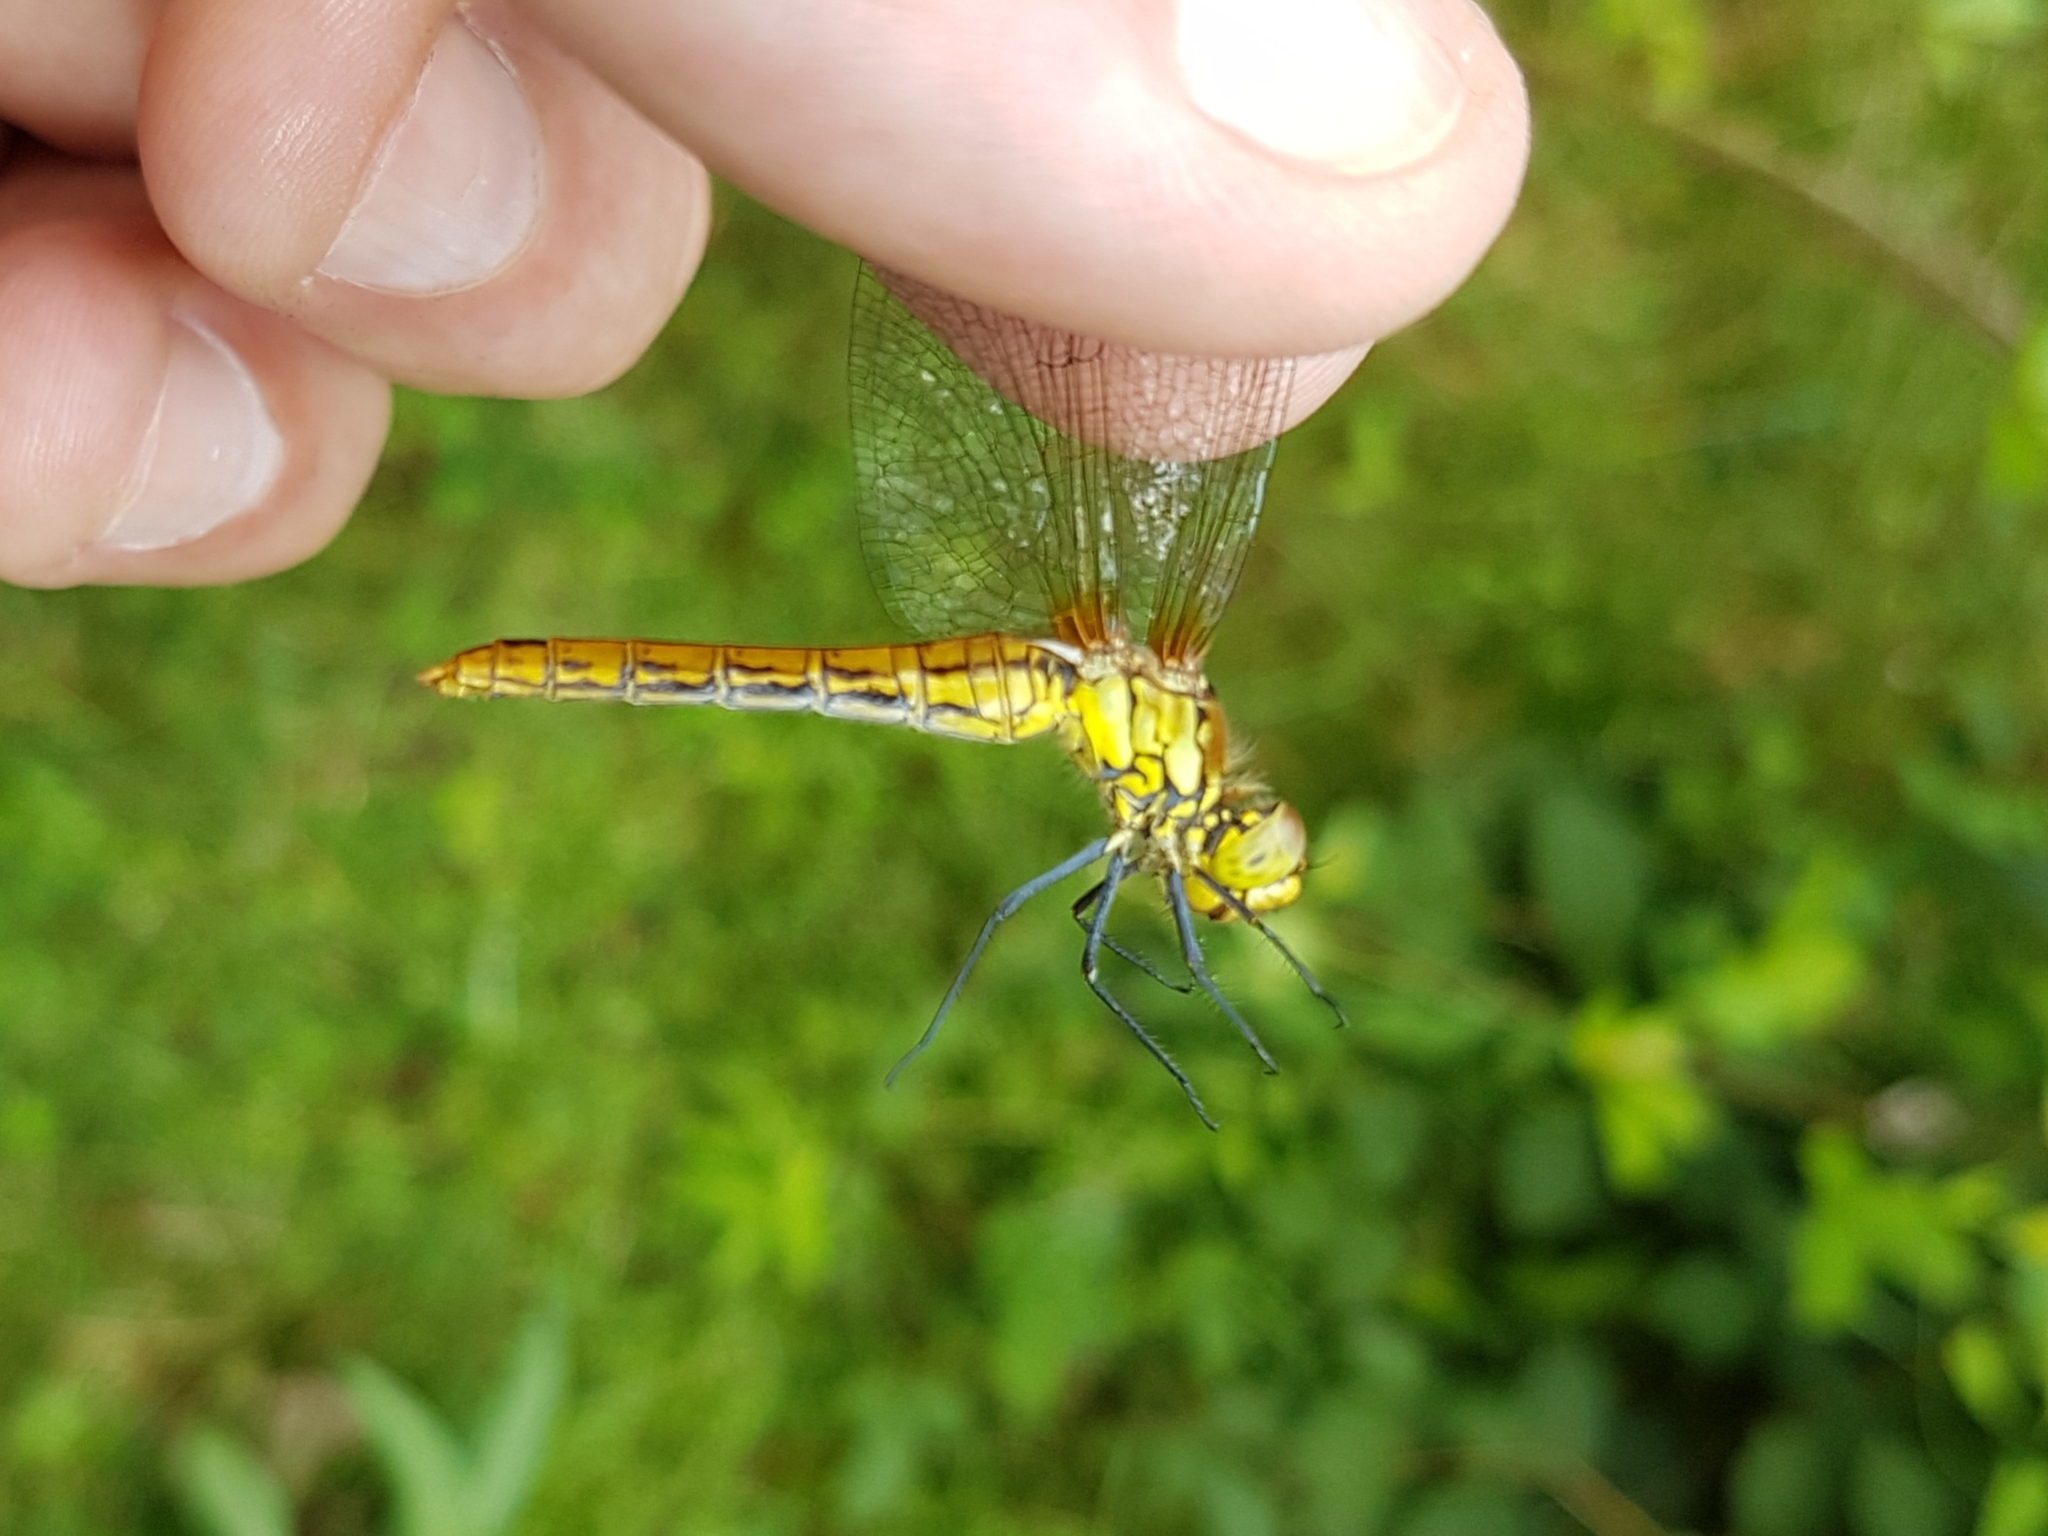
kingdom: Animalia
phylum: Arthropoda
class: Insecta
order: Odonata
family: Libellulidae
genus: Sympetrum
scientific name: Sympetrum sanguineum
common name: Ruddy darter
